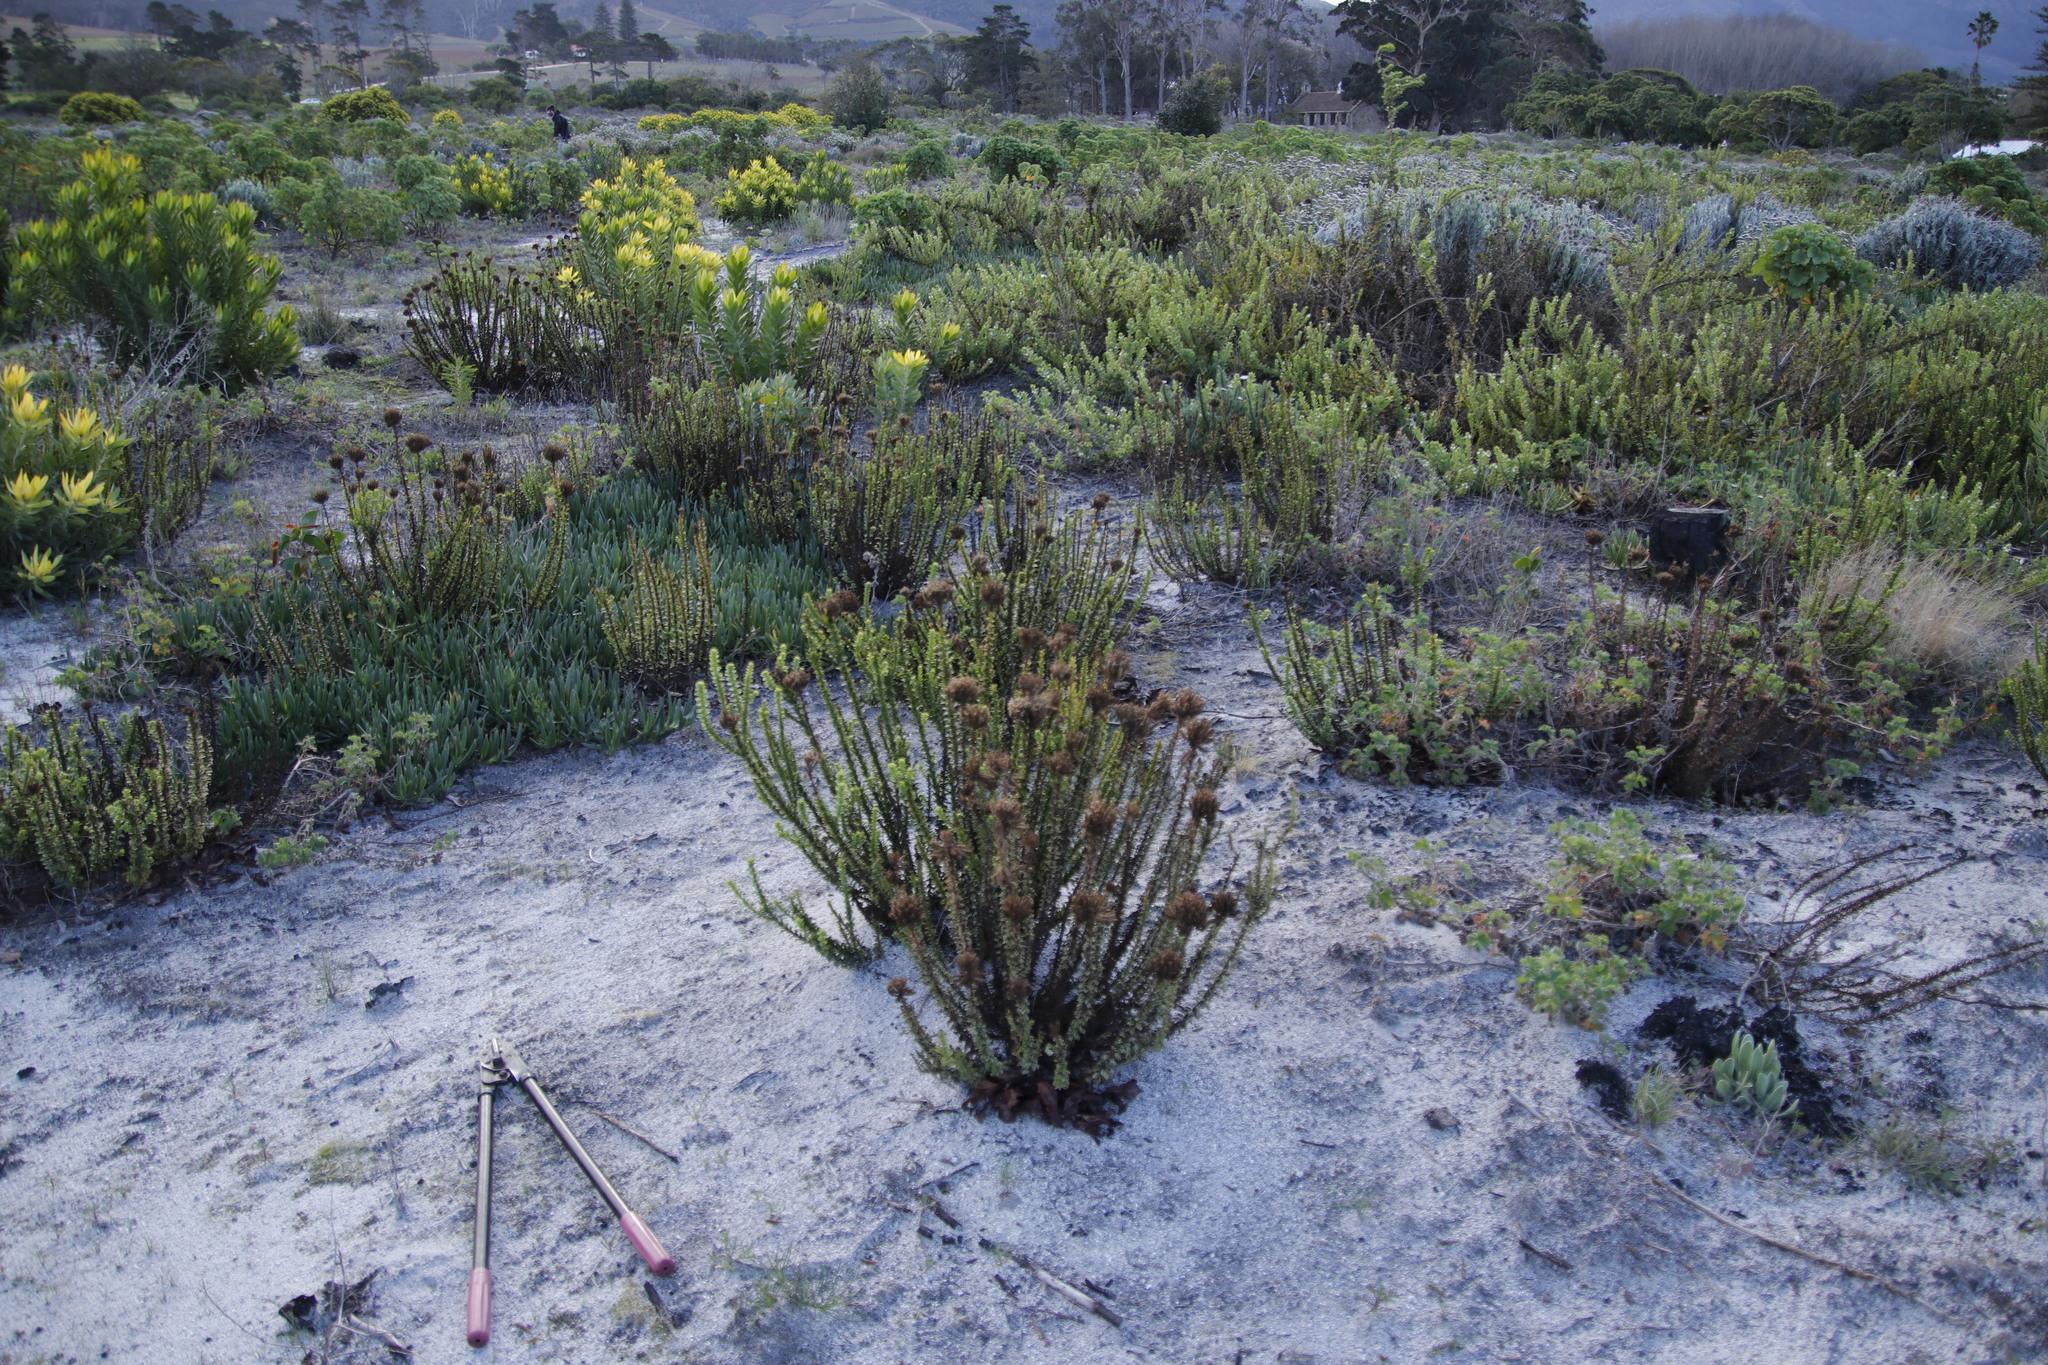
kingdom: Plantae
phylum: Tracheophyta
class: Magnoliopsida
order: Lamiales
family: Scrophulariaceae
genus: Pseudoselago
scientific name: Pseudoselago serrata
